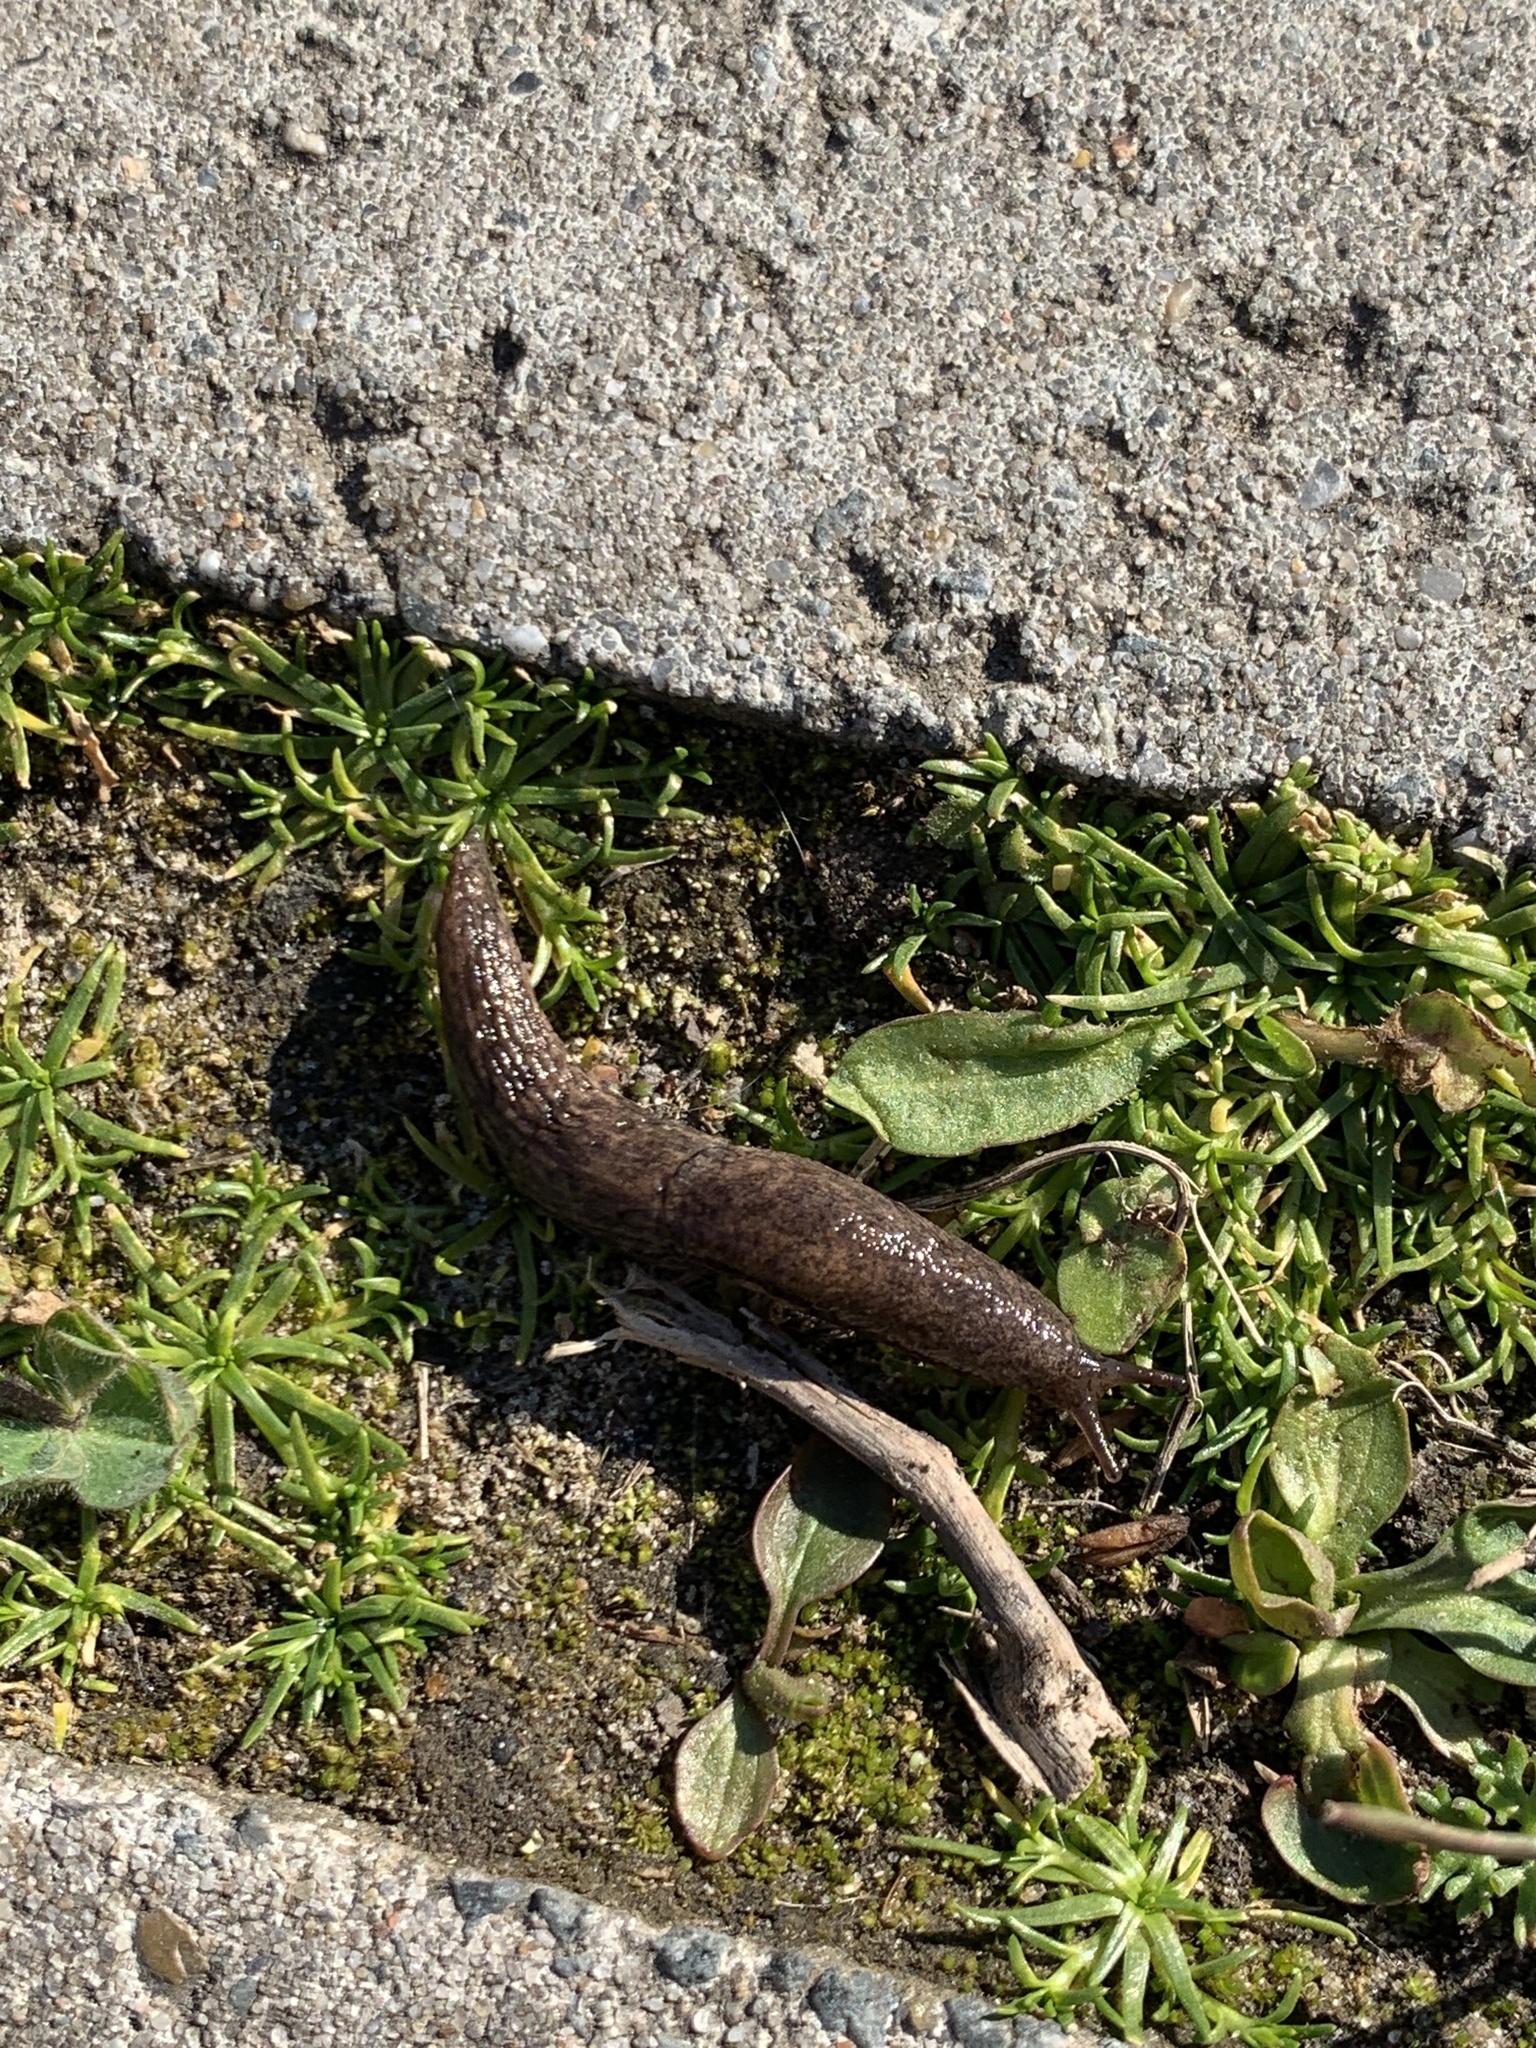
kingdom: Animalia
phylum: Mollusca
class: Gastropoda
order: Stylommatophora
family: Agriolimacidae
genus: Deroceras
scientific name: Deroceras reticulatum
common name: Gray field slug
